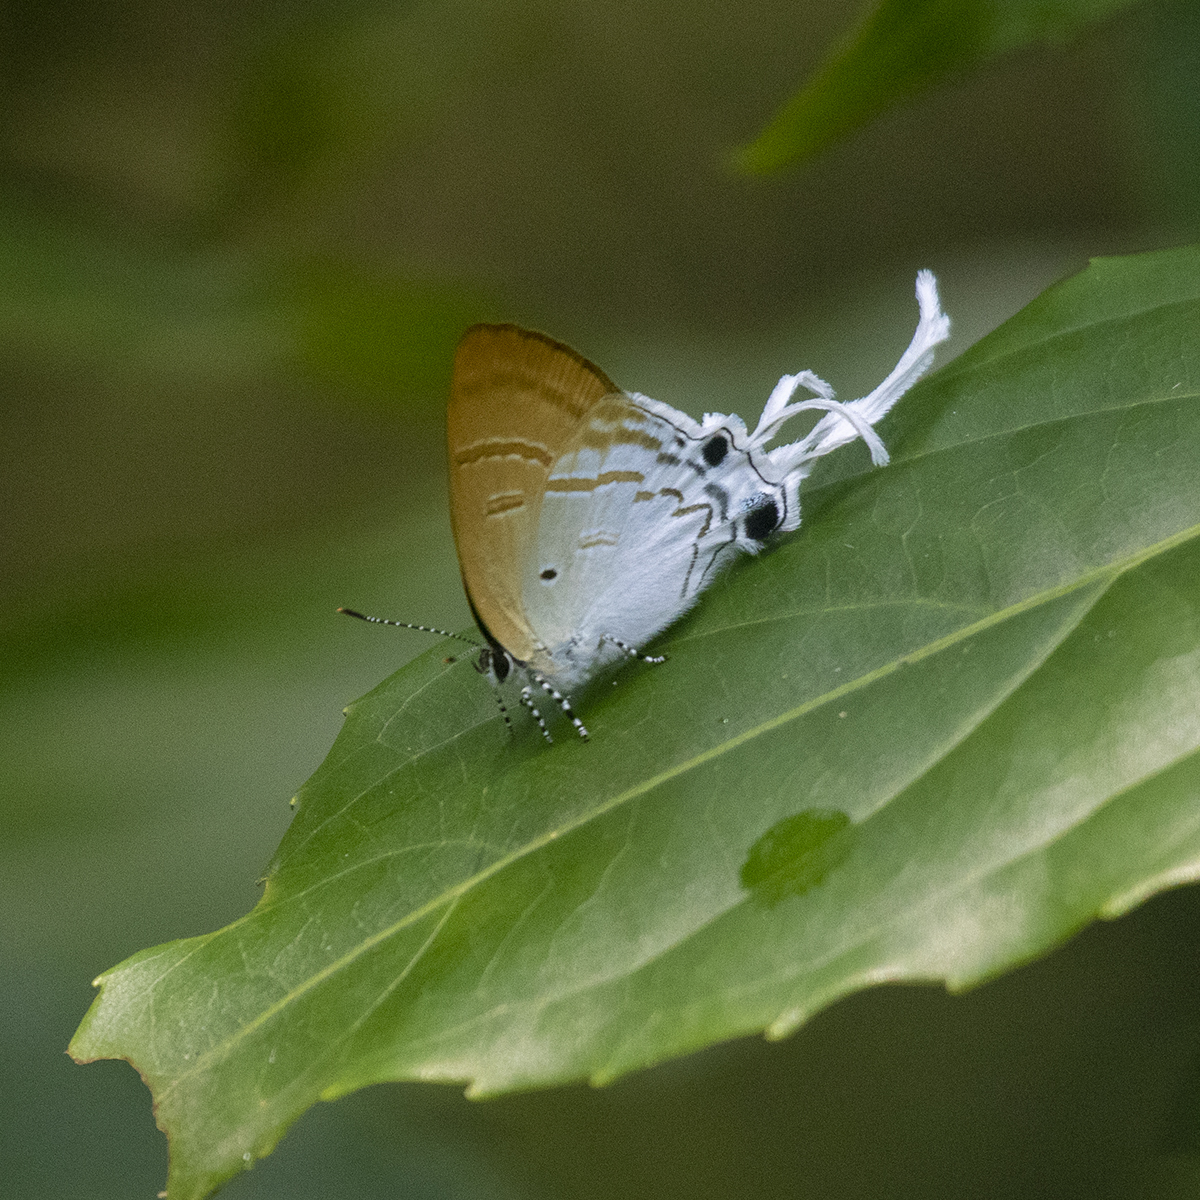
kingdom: Animalia
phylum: Arthropoda
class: Insecta
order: Lepidoptera
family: Lycaenidae
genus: Zeltus
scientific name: Zeltus amasa
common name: Fluffy tit
